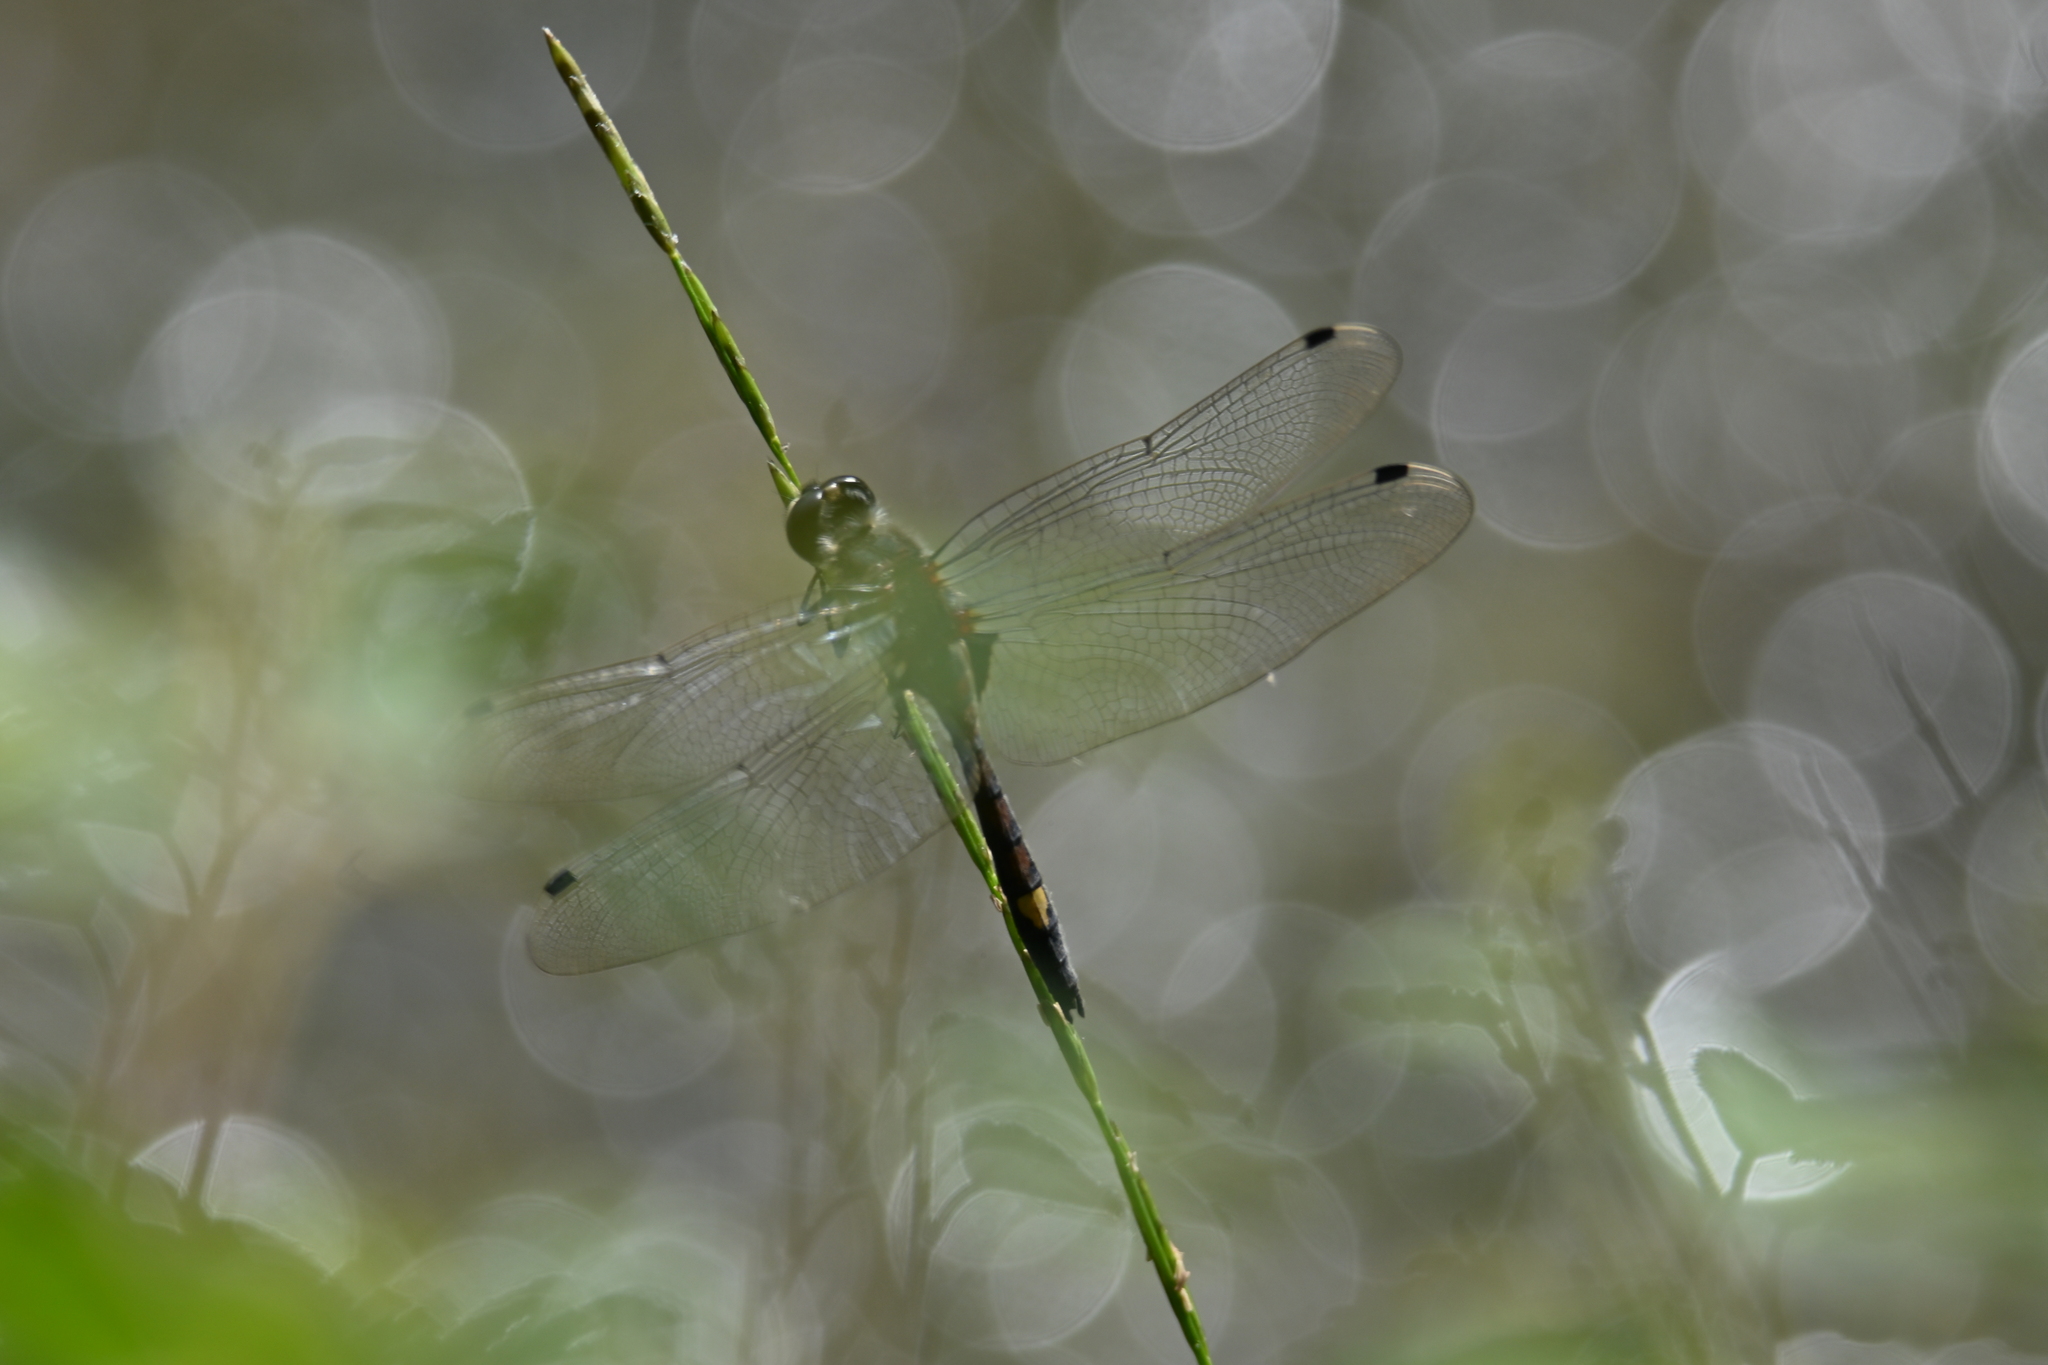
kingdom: Animalia
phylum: Arthropoda
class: Insecta
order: Odonata
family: Libellulidae
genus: Leucorrhinia
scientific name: Leucorrhinia pectoralis
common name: Yellow-spotted whiteface
